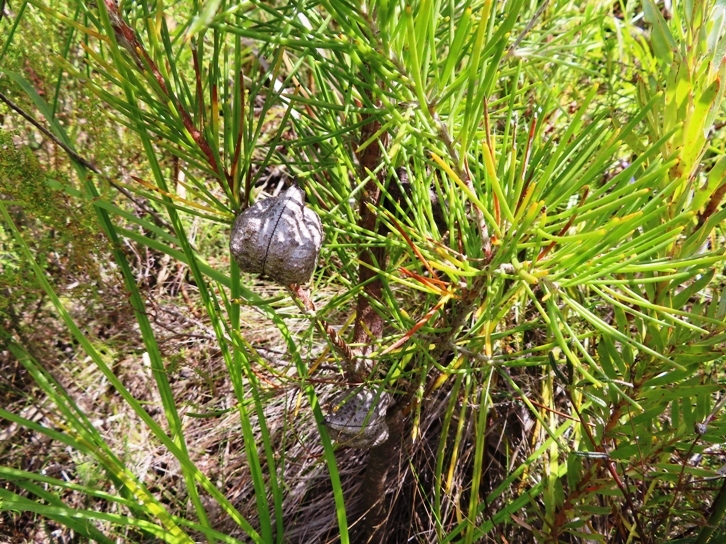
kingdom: Plantae
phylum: Tracheophyta
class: Magnoliopsida
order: Proteales
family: Proteaceae
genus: Hakea
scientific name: Hakea gibbosa
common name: Rock hakea
